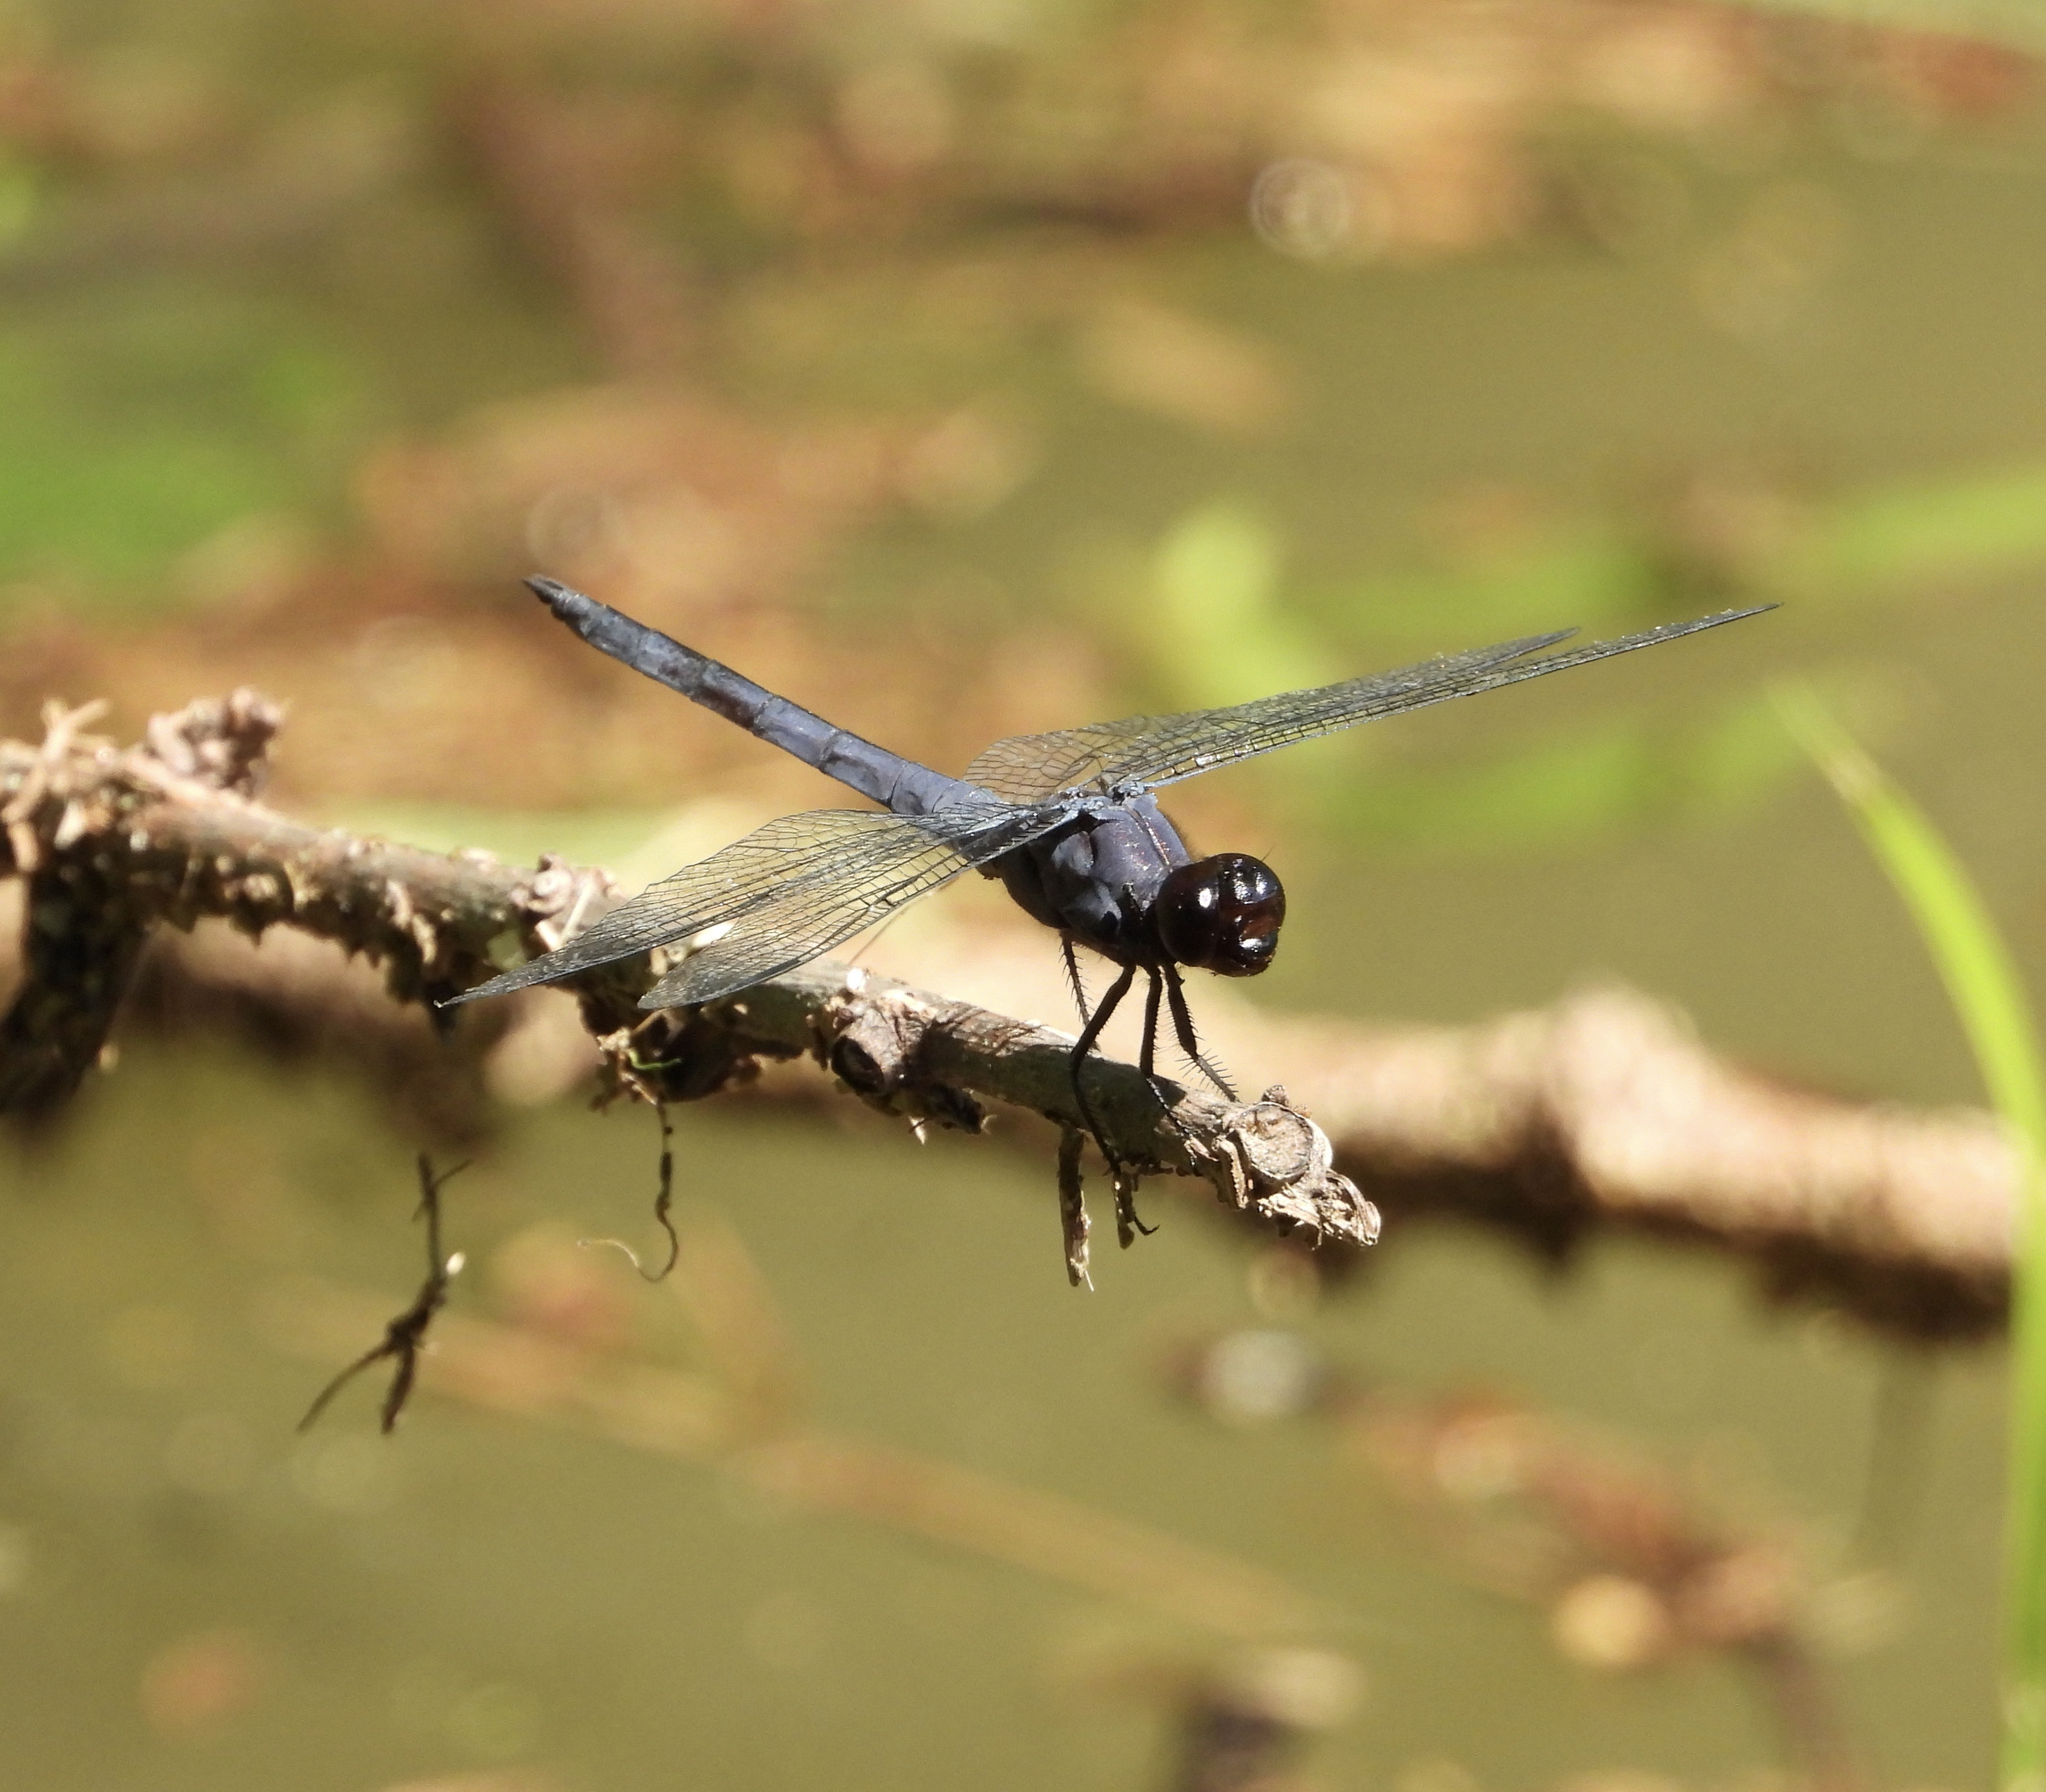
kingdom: Animalia
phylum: Arthropoda
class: Insecta
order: Odonata
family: Libellulidae
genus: Libellula
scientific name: Libellula incesta
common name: Slaty skimmer
